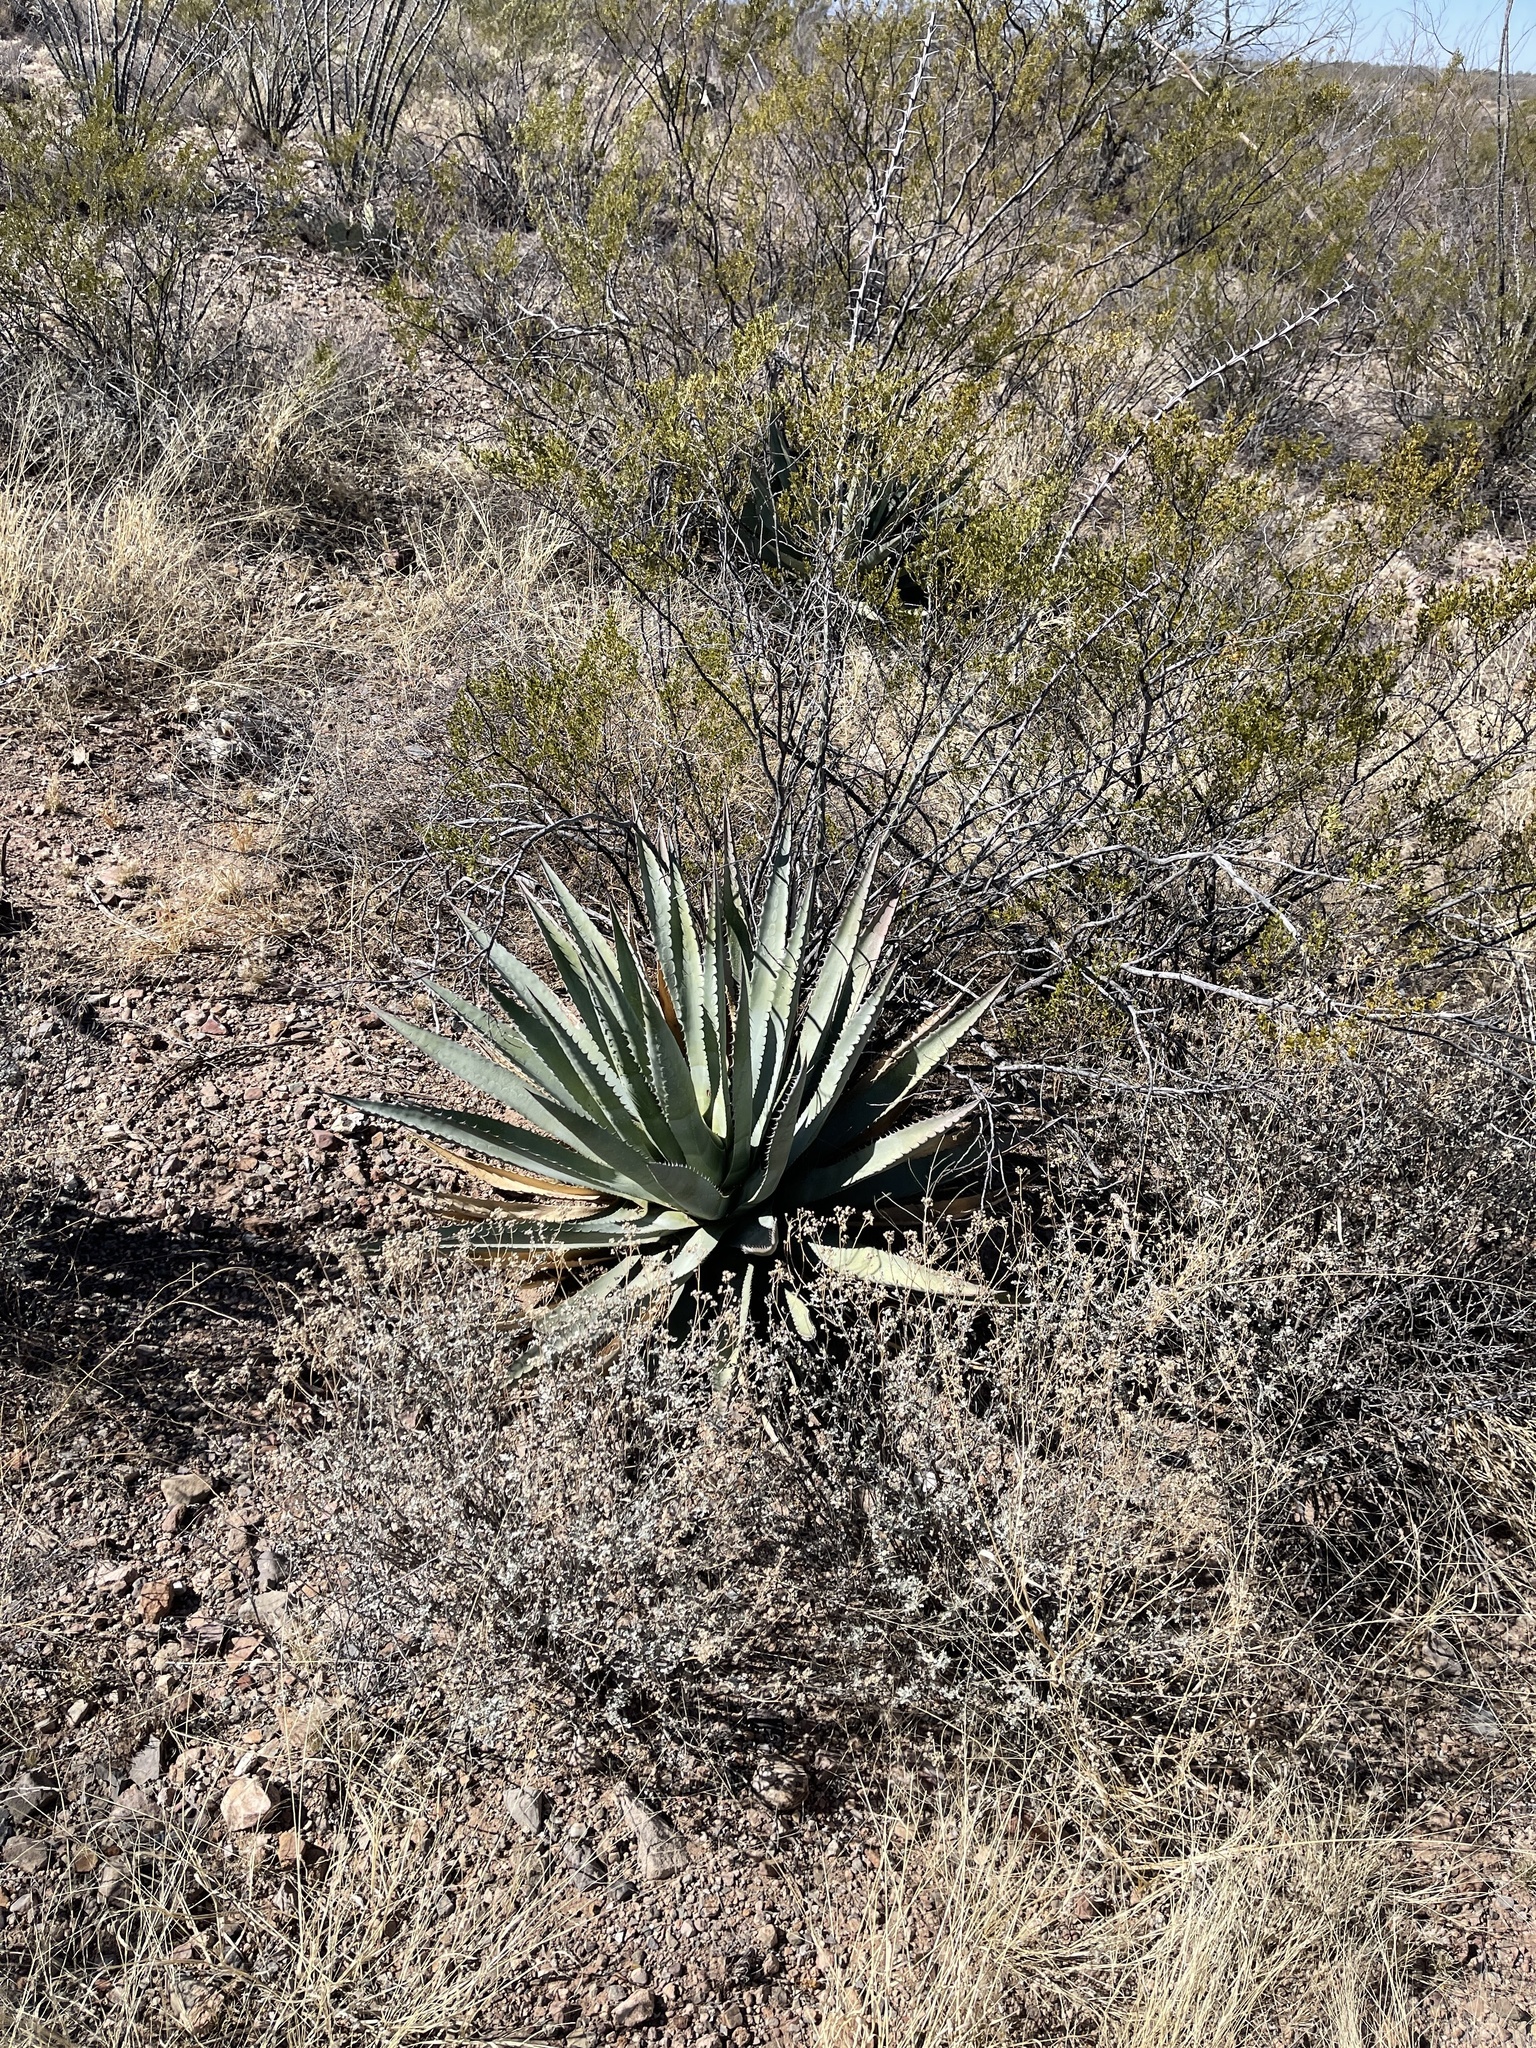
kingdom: Plantae
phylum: Tracheophyta
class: Liliopsida
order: Asparagales
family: Asparagaceae
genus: Agave
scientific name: Agave palmeri
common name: Palmer agave
